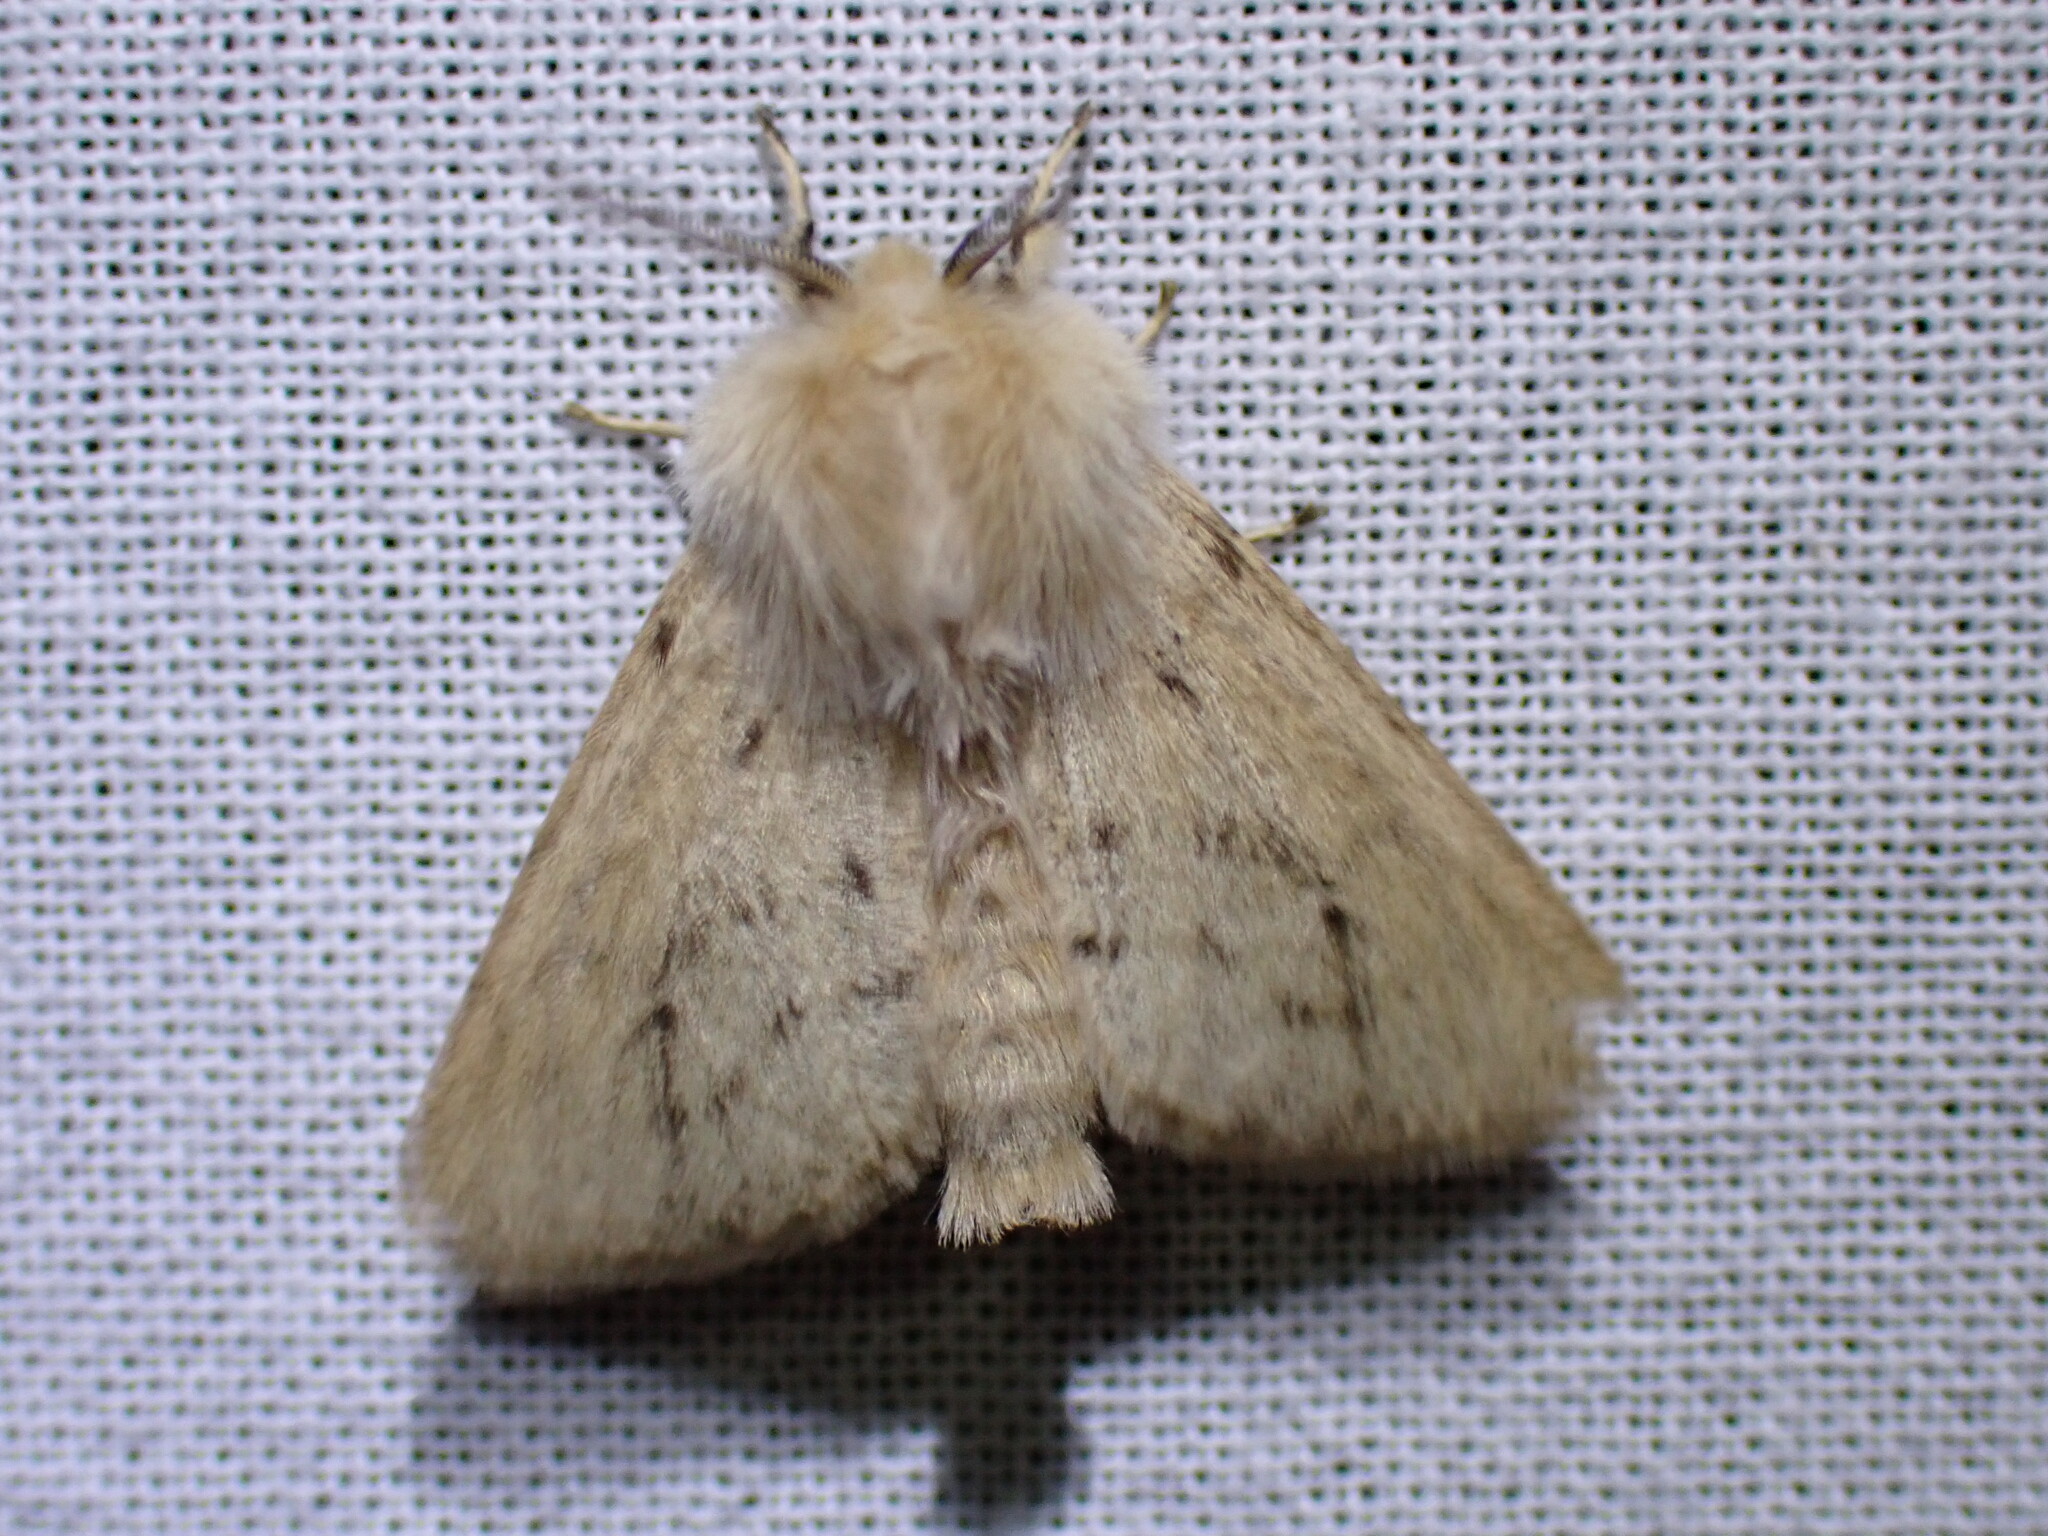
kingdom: Animalia
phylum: Arthropoda
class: Insecta
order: Lepidoptera
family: Erebidae
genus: Spilosoma
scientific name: Spilosoma vagans
